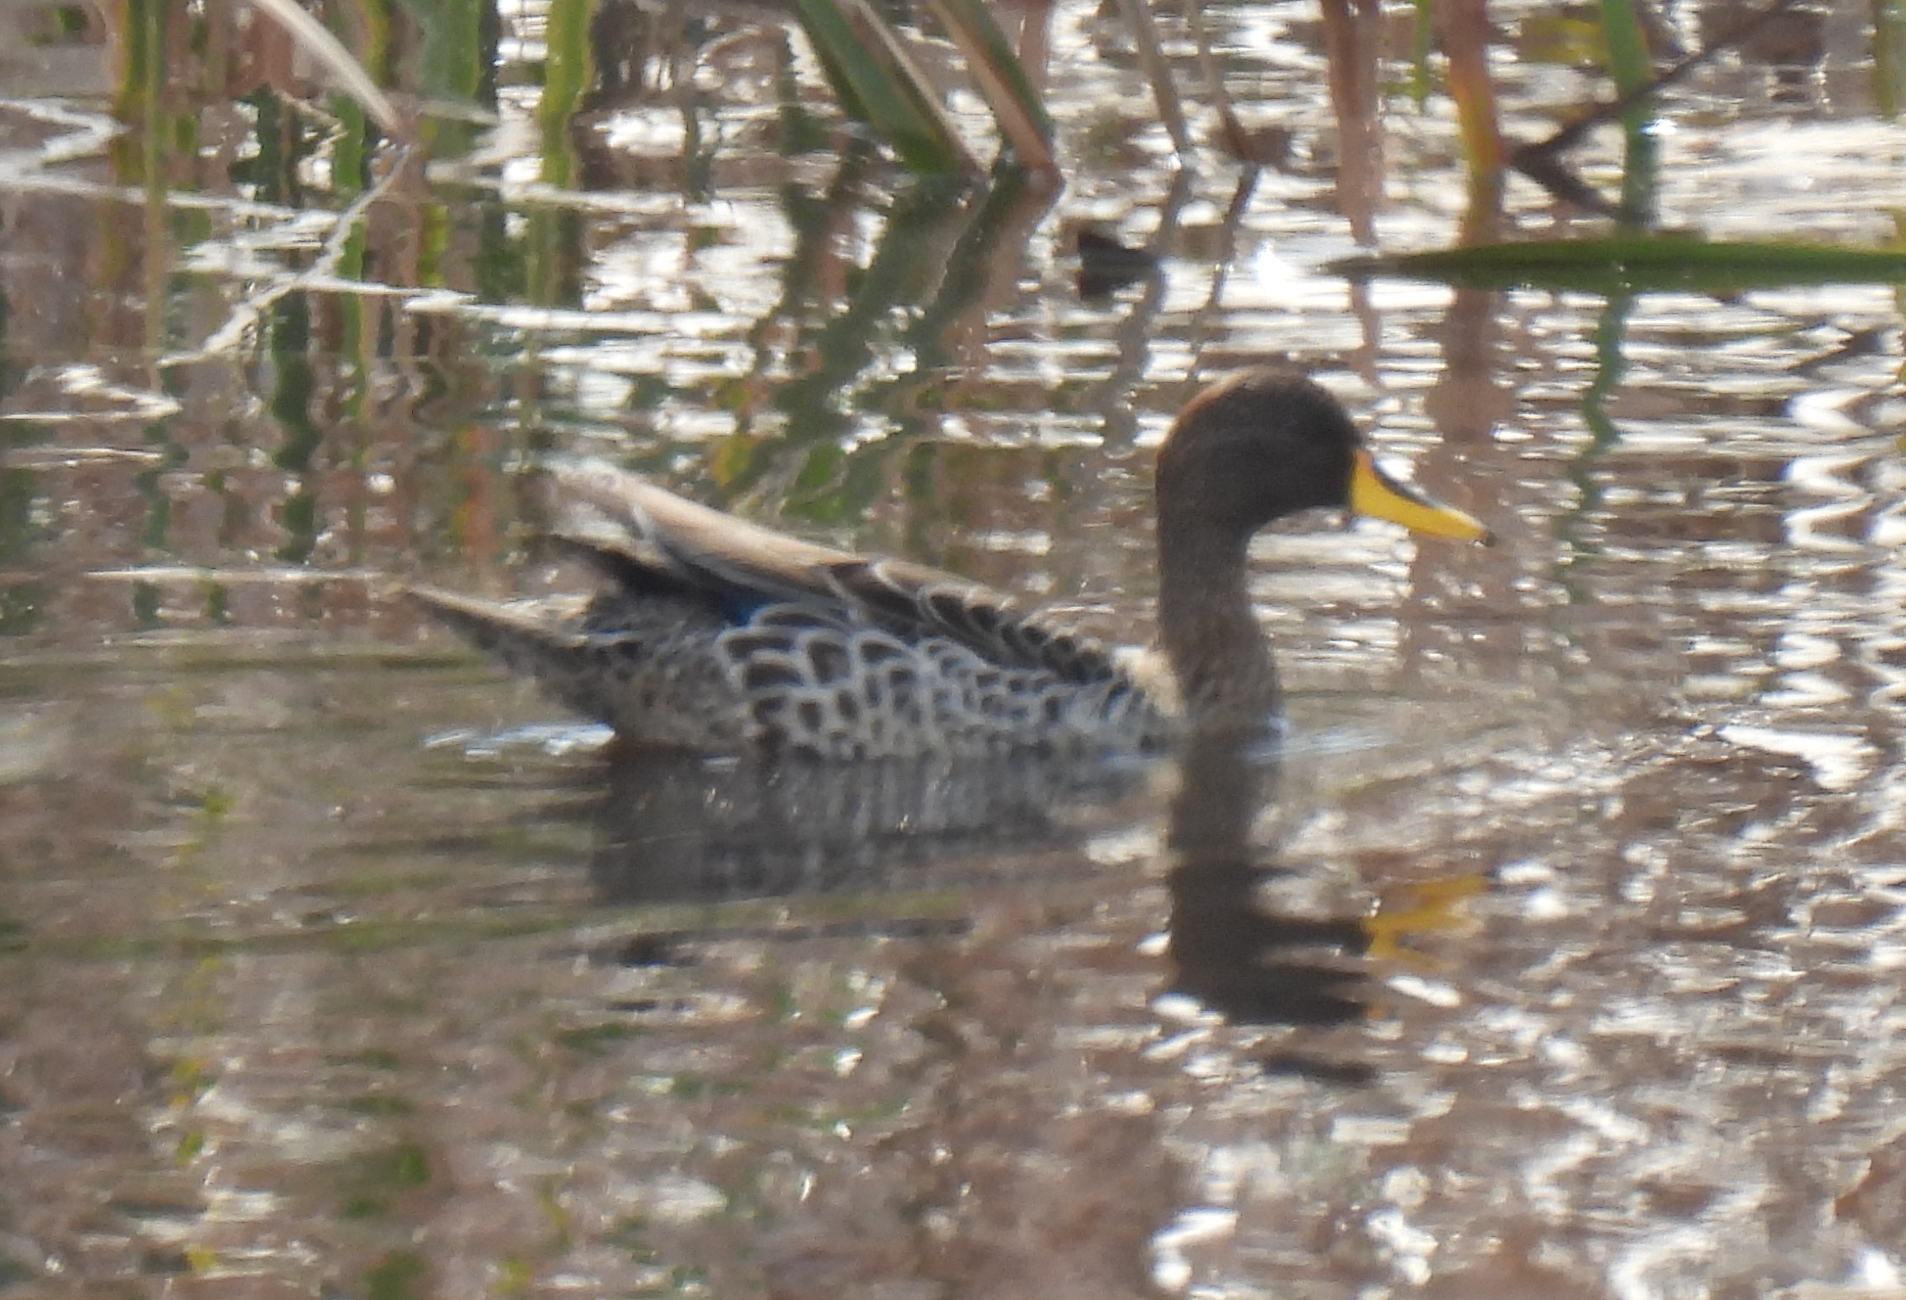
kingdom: Animalia
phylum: Chordata
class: Aves
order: Anseriformes
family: Anatidae
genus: Anas
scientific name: Anas undulata
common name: Yellow-billed duck
